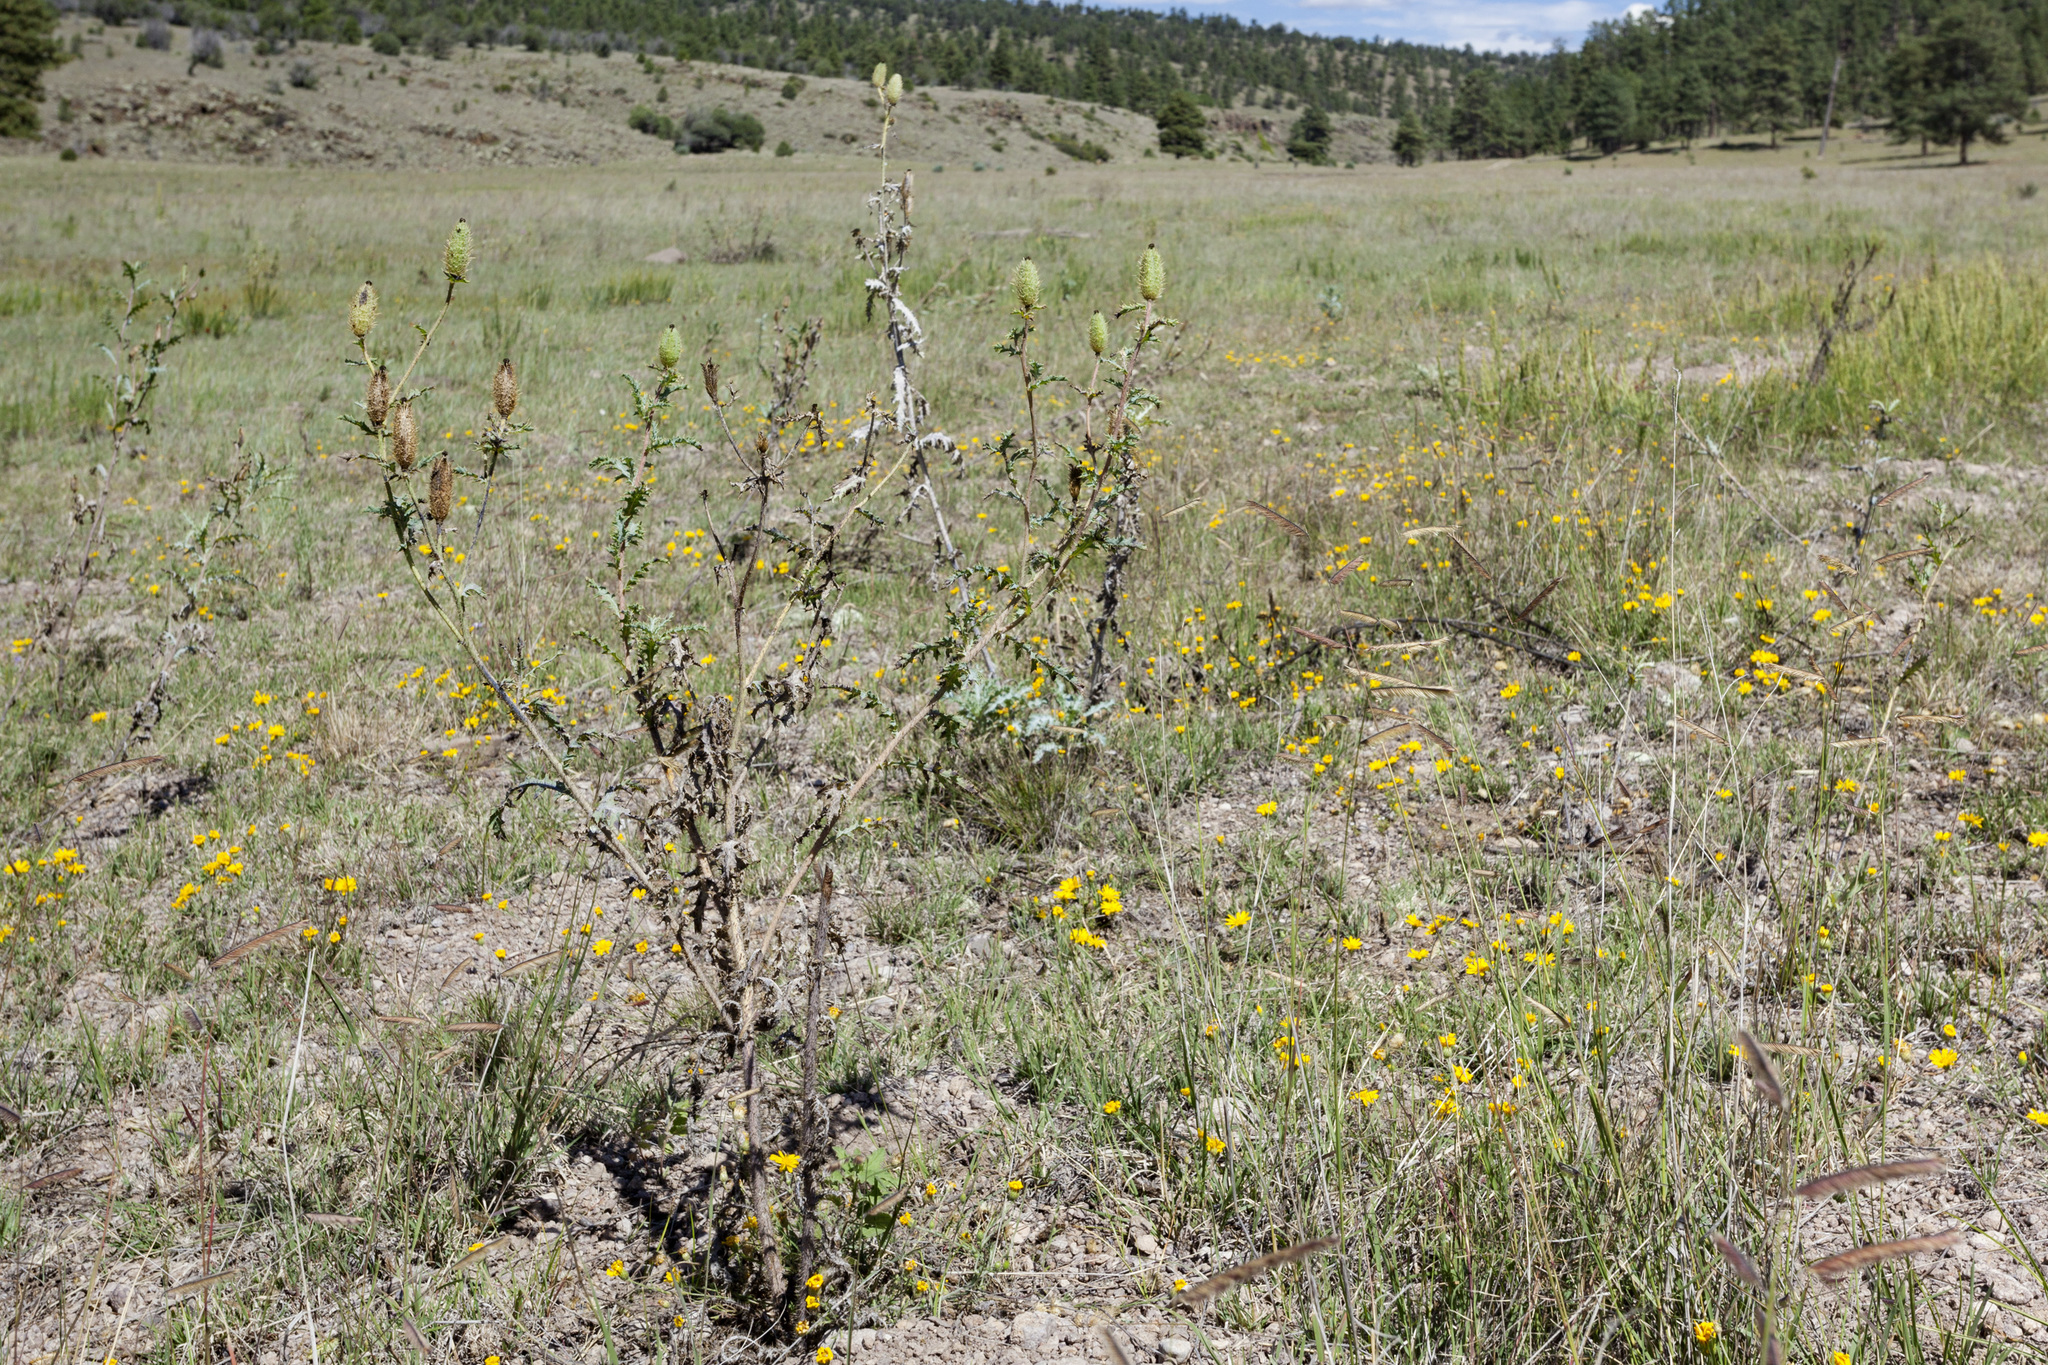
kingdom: Plantae
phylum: Tracheophyta
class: Magnoliopsida
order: Ranunculales
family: Papaveraceae
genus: Argemone
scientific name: Argemone pleiacantha
